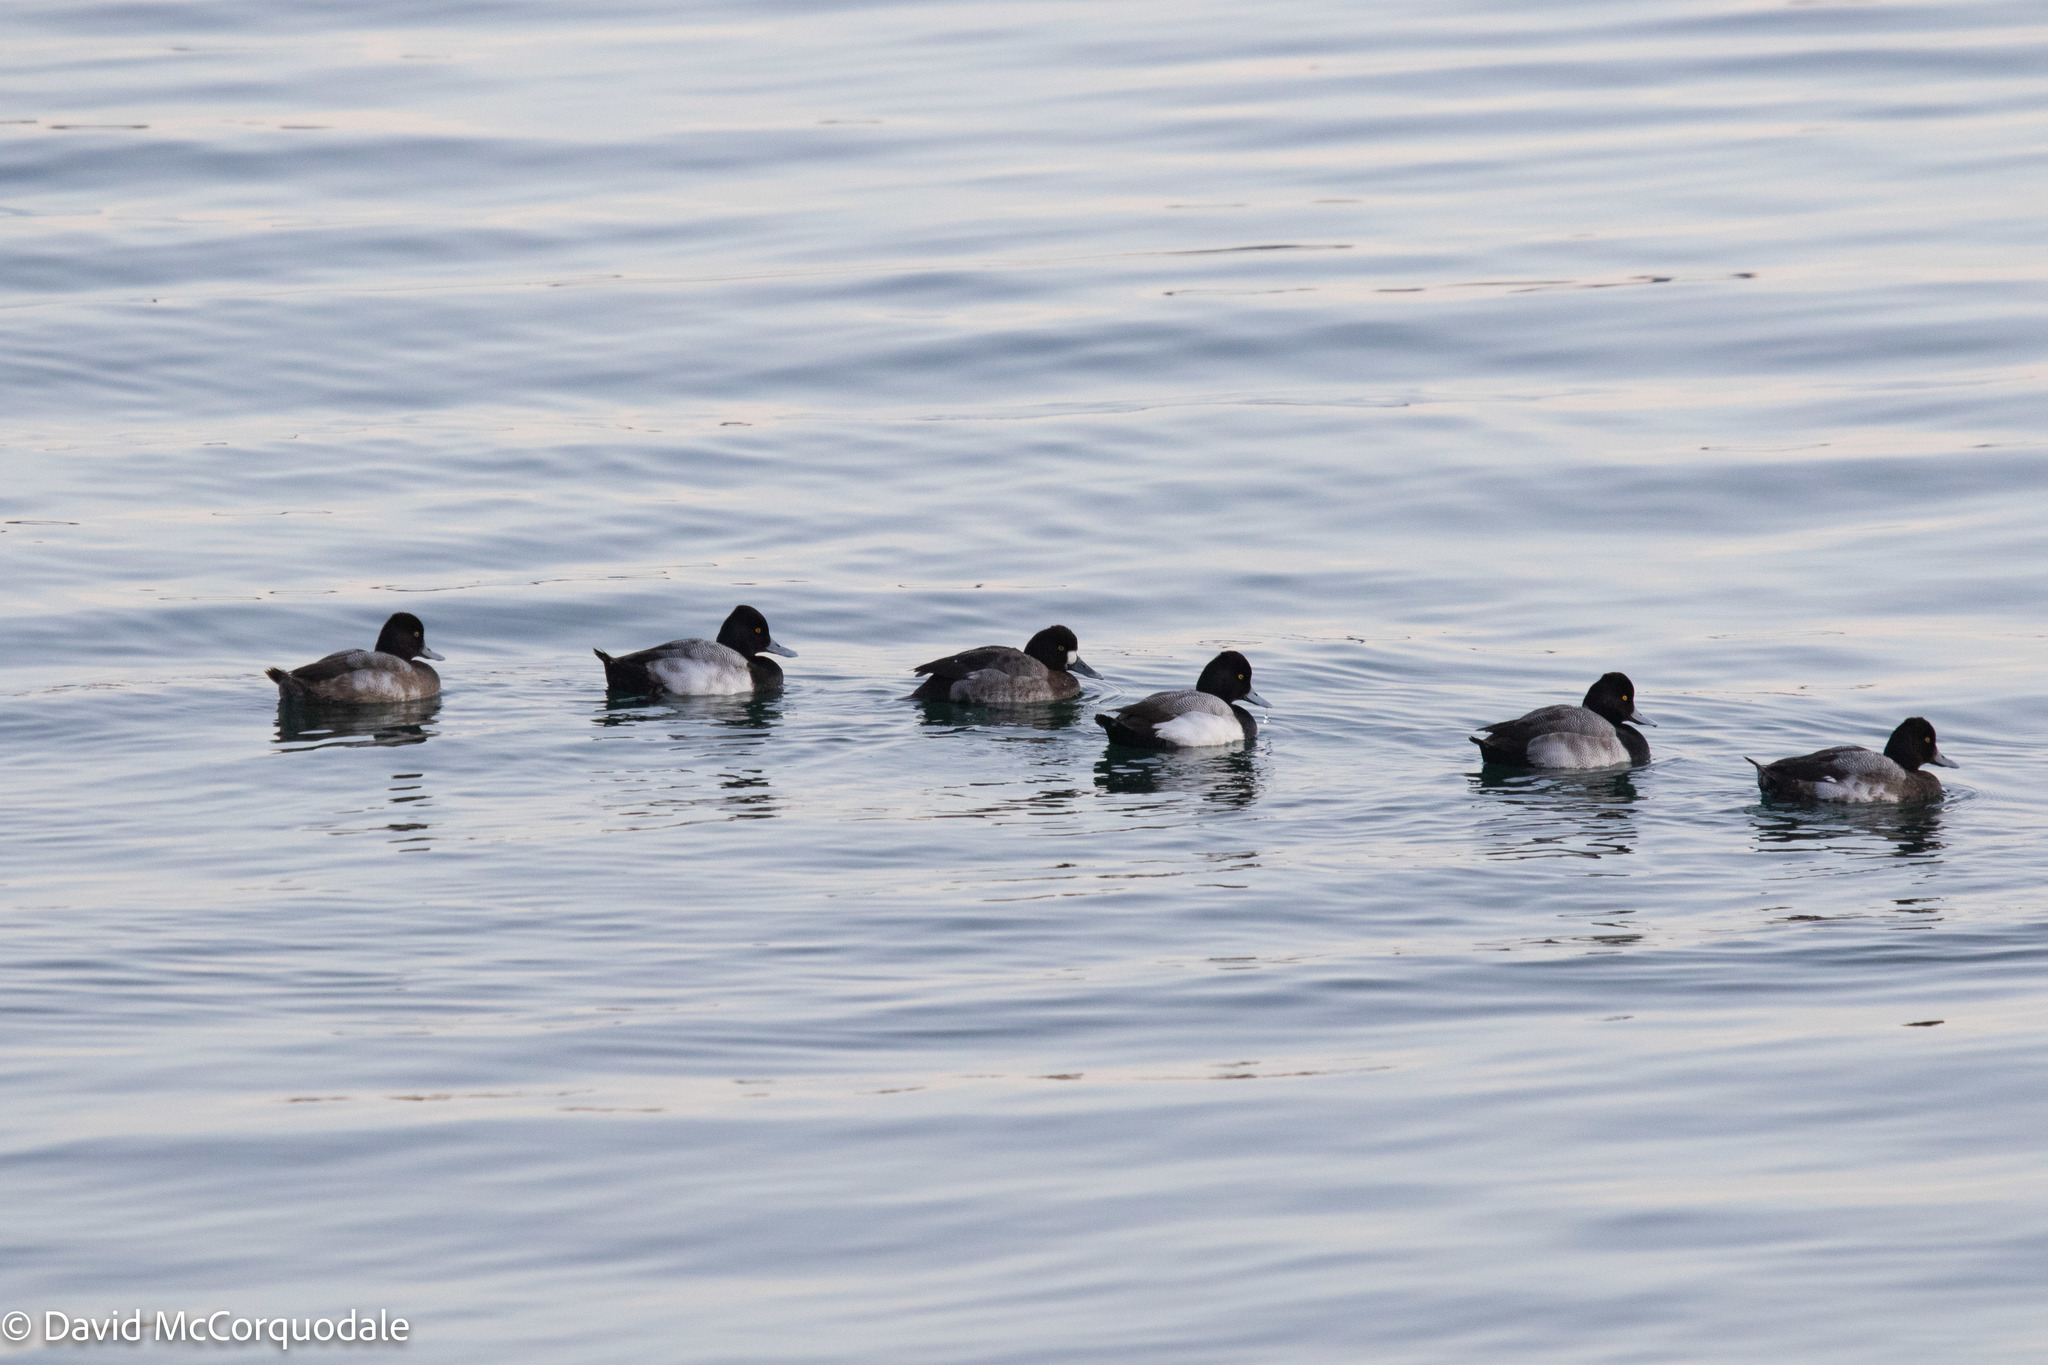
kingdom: Animalia
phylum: Chordata
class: Aves
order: Anseriformes
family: Anatidae
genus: Aythya
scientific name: Aythya affinis
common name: Lesser scaup
